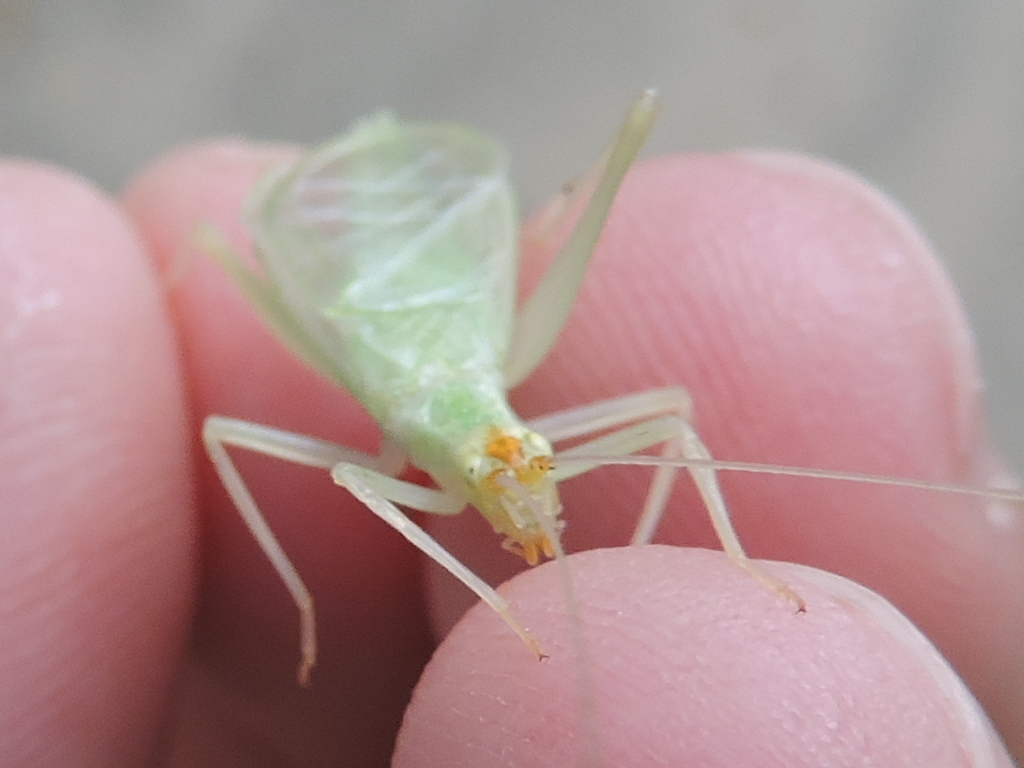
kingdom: Animalia
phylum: Arthropoda
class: Insecta
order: Orthoptera
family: Gryllidae
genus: Oecanthus
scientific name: Oecanthus fultoni
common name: Snowy tree cricket
